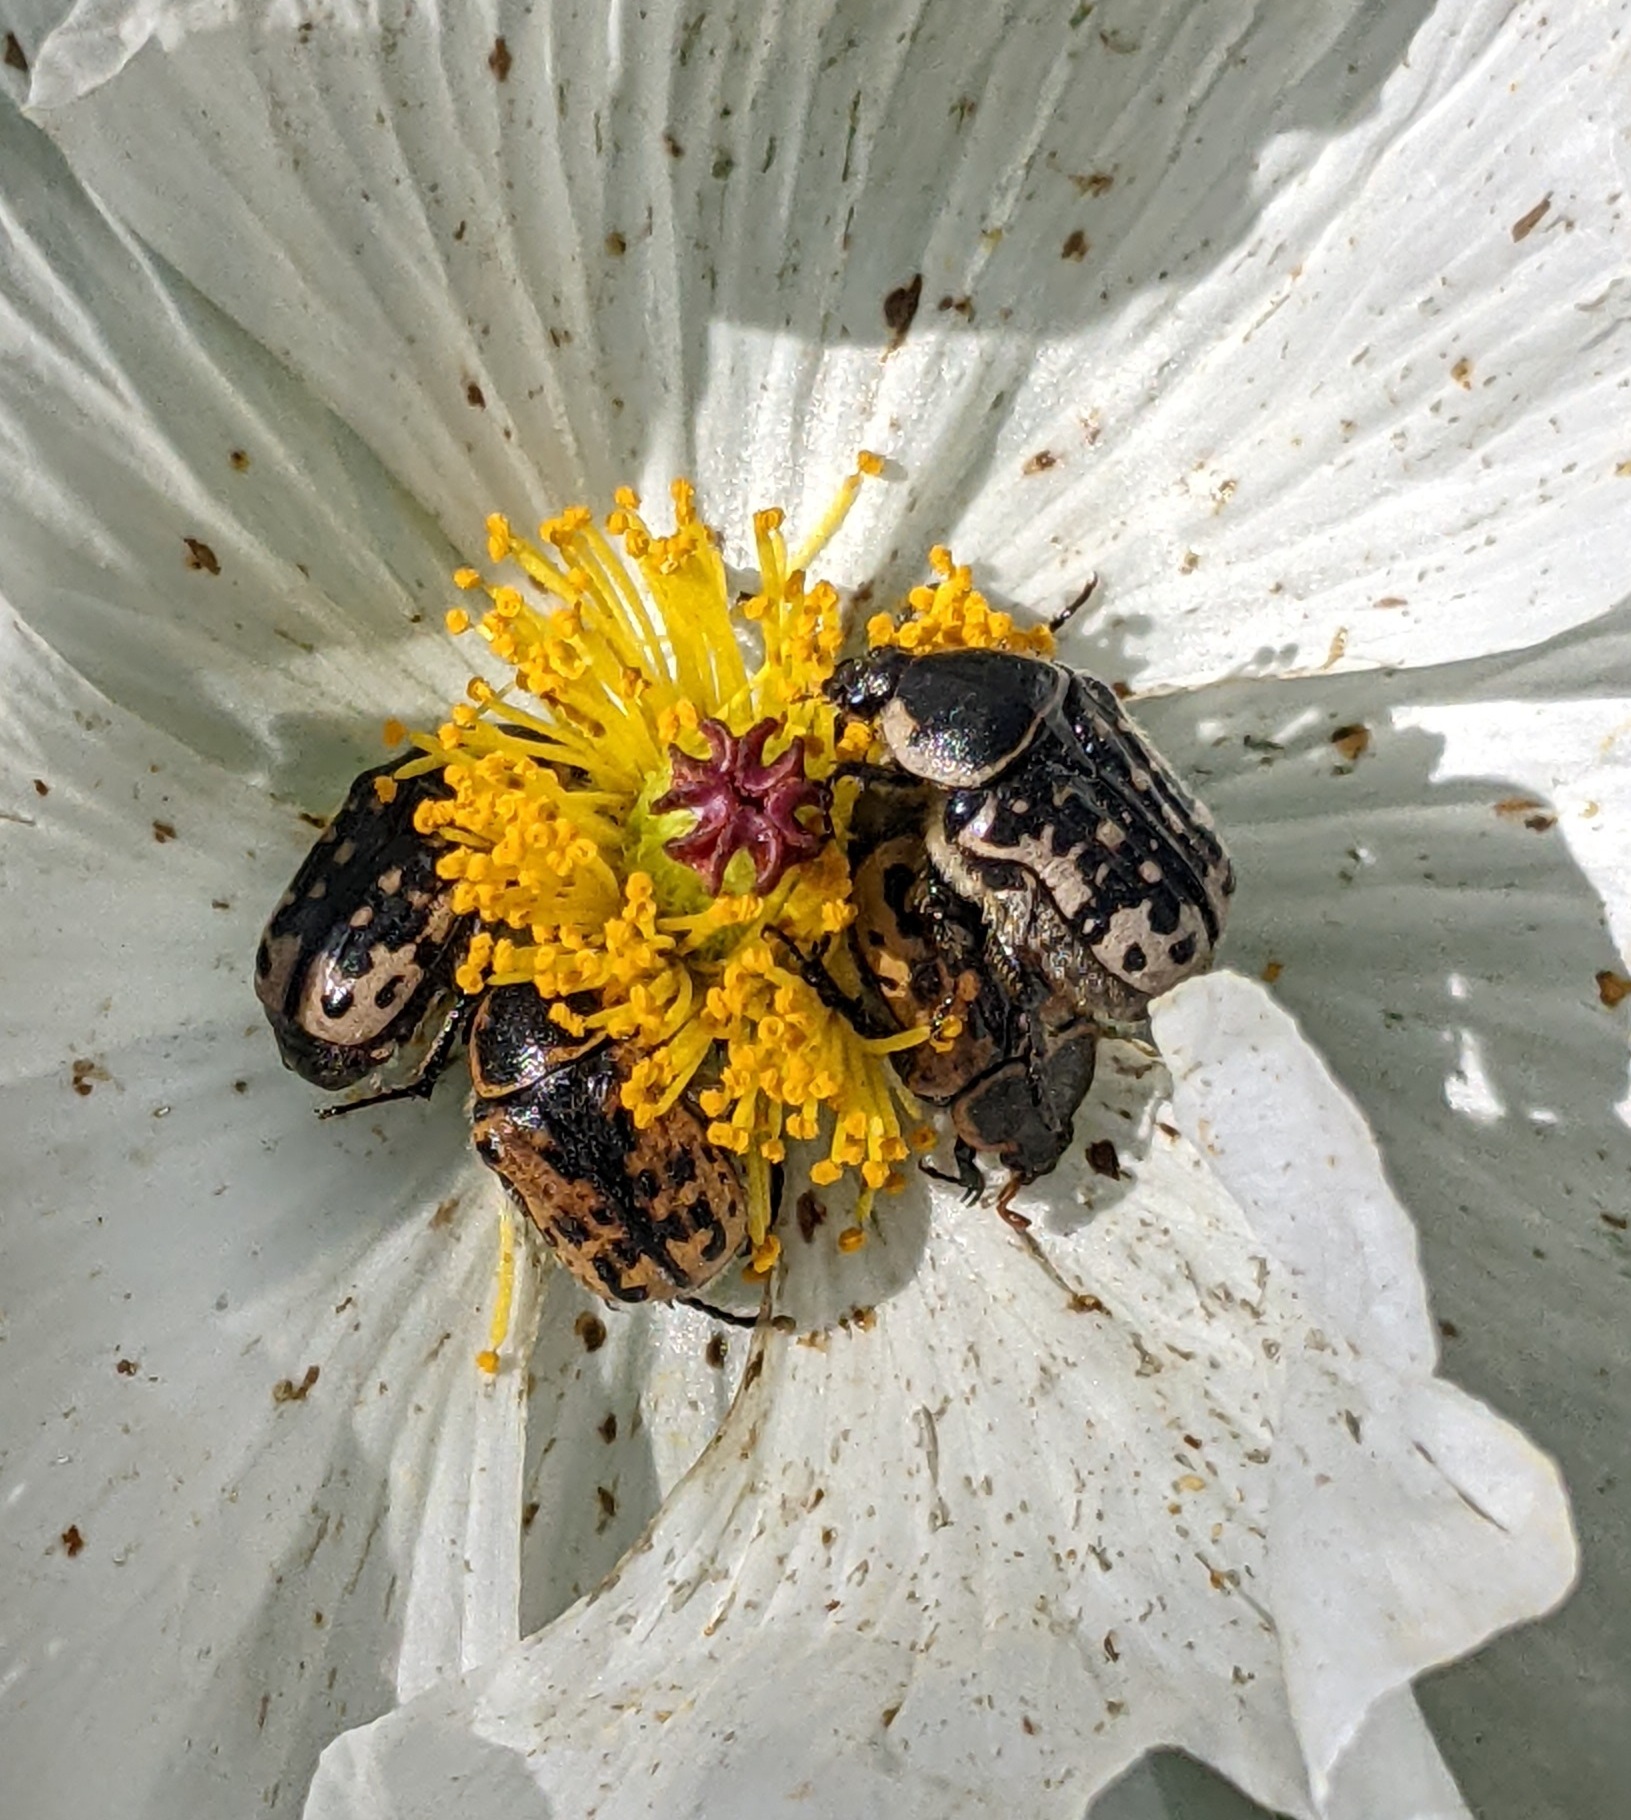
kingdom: Animalia
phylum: Arthropoda
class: Insecta
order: Coleoptera
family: Scarabaeidae
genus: Euphoria
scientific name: Euphoria kernii
